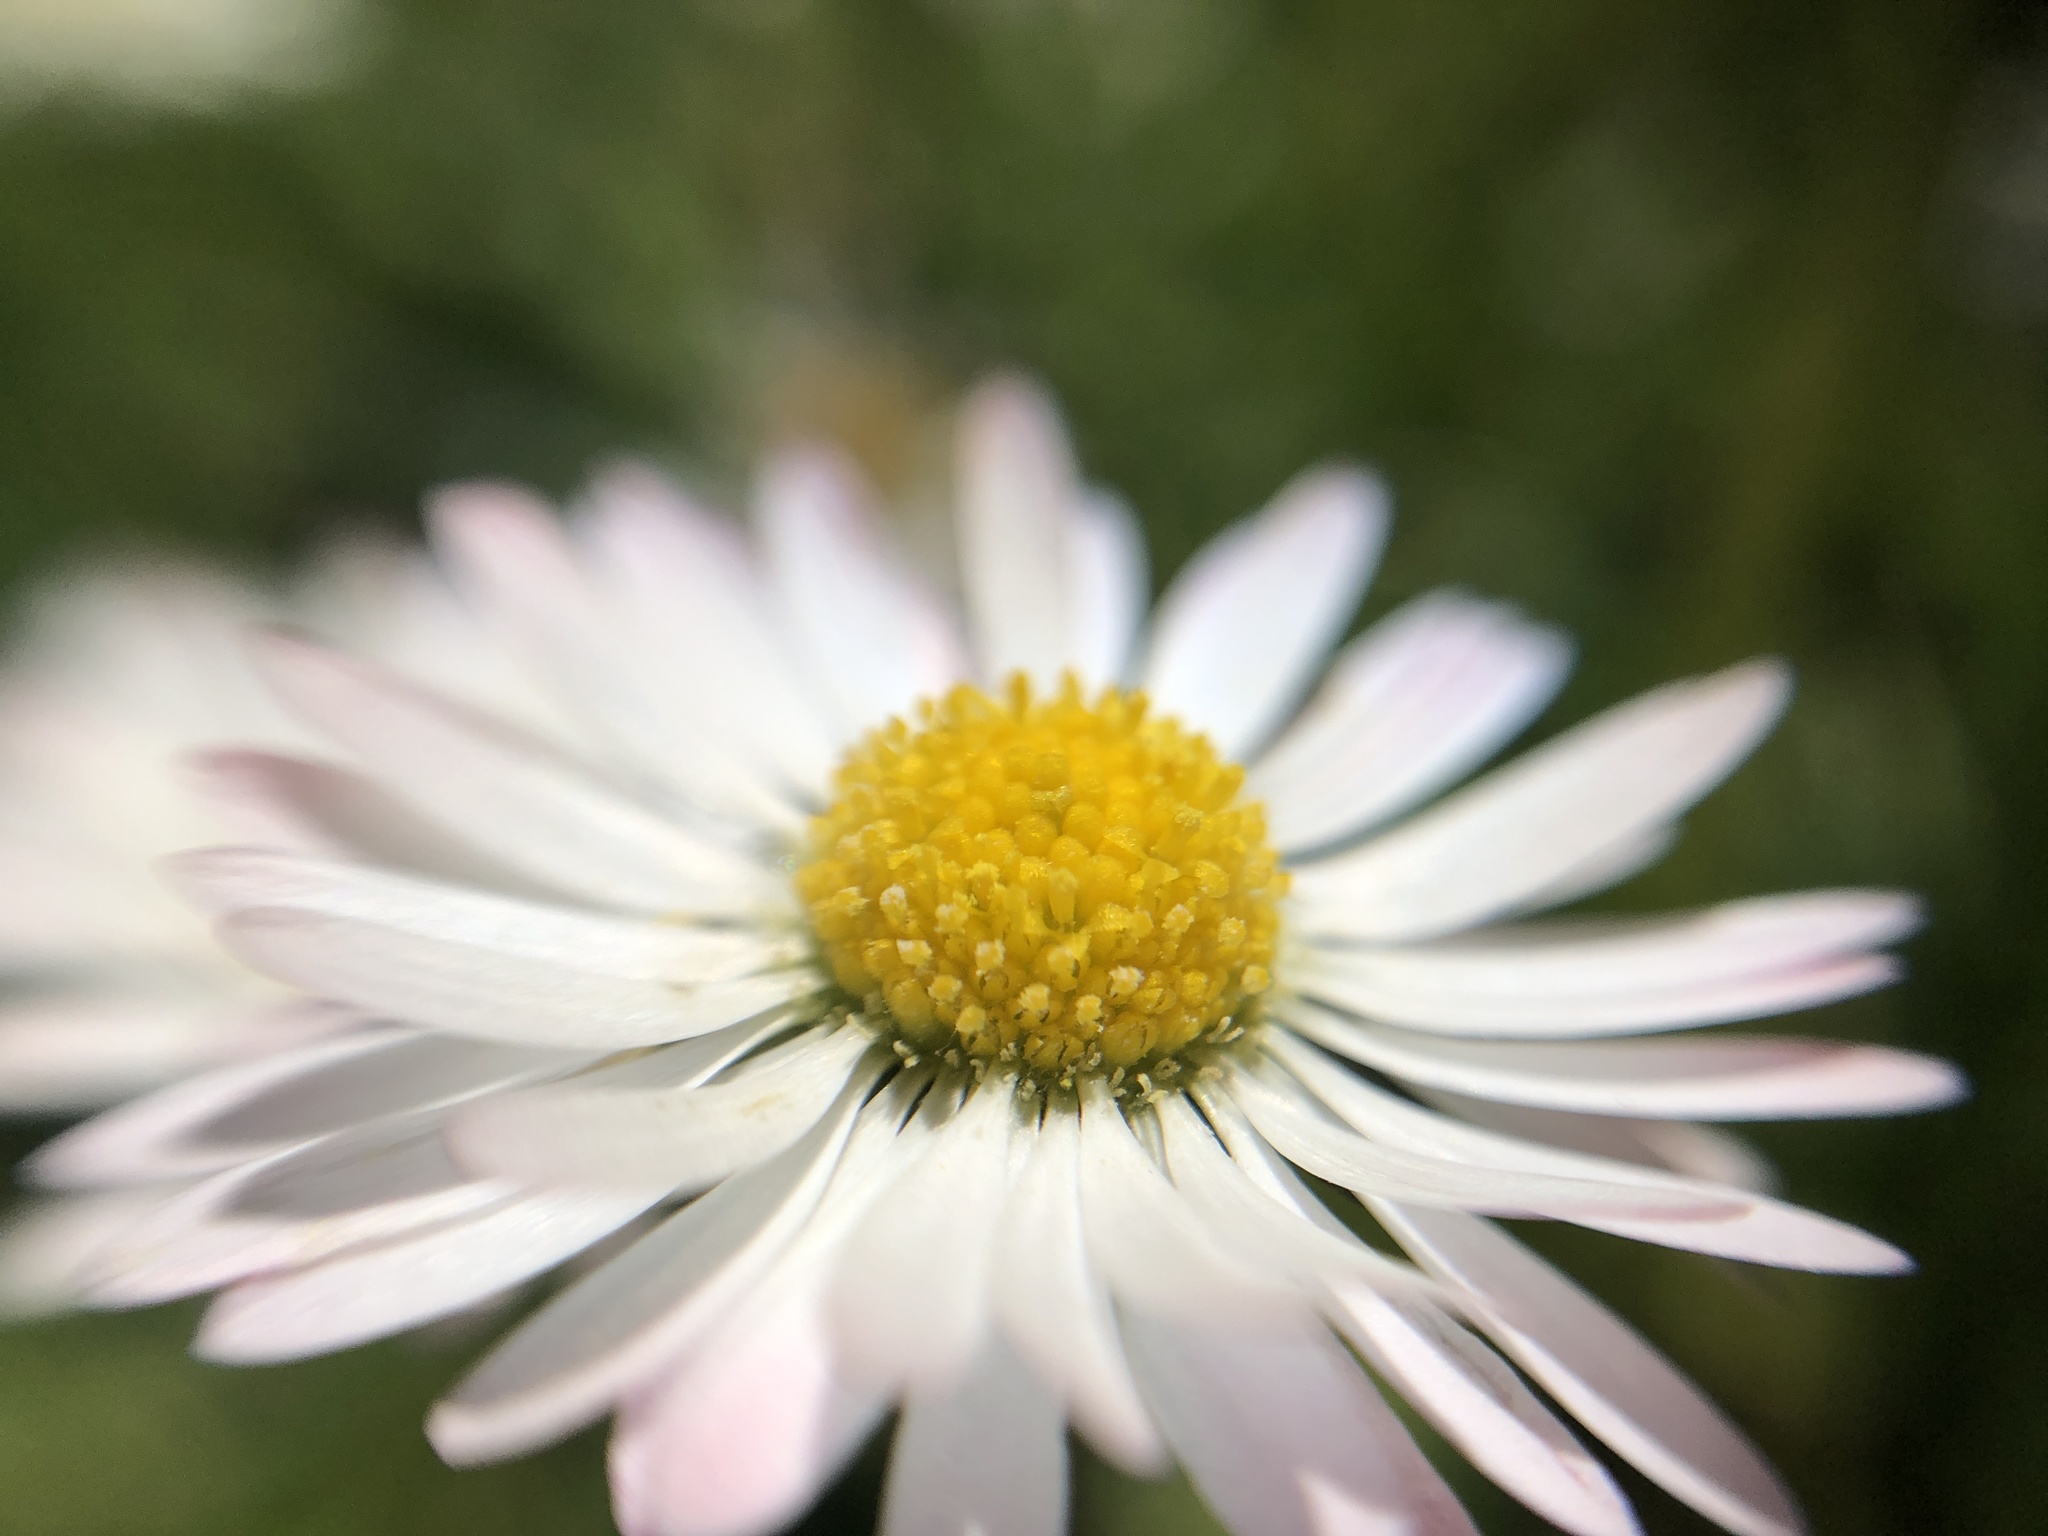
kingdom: Plantae
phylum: Tracheophyta
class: Magnoliopsida
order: Asterales
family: Asteraceae
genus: Bellis
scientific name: Bellis perennis
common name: Lawndaisy
